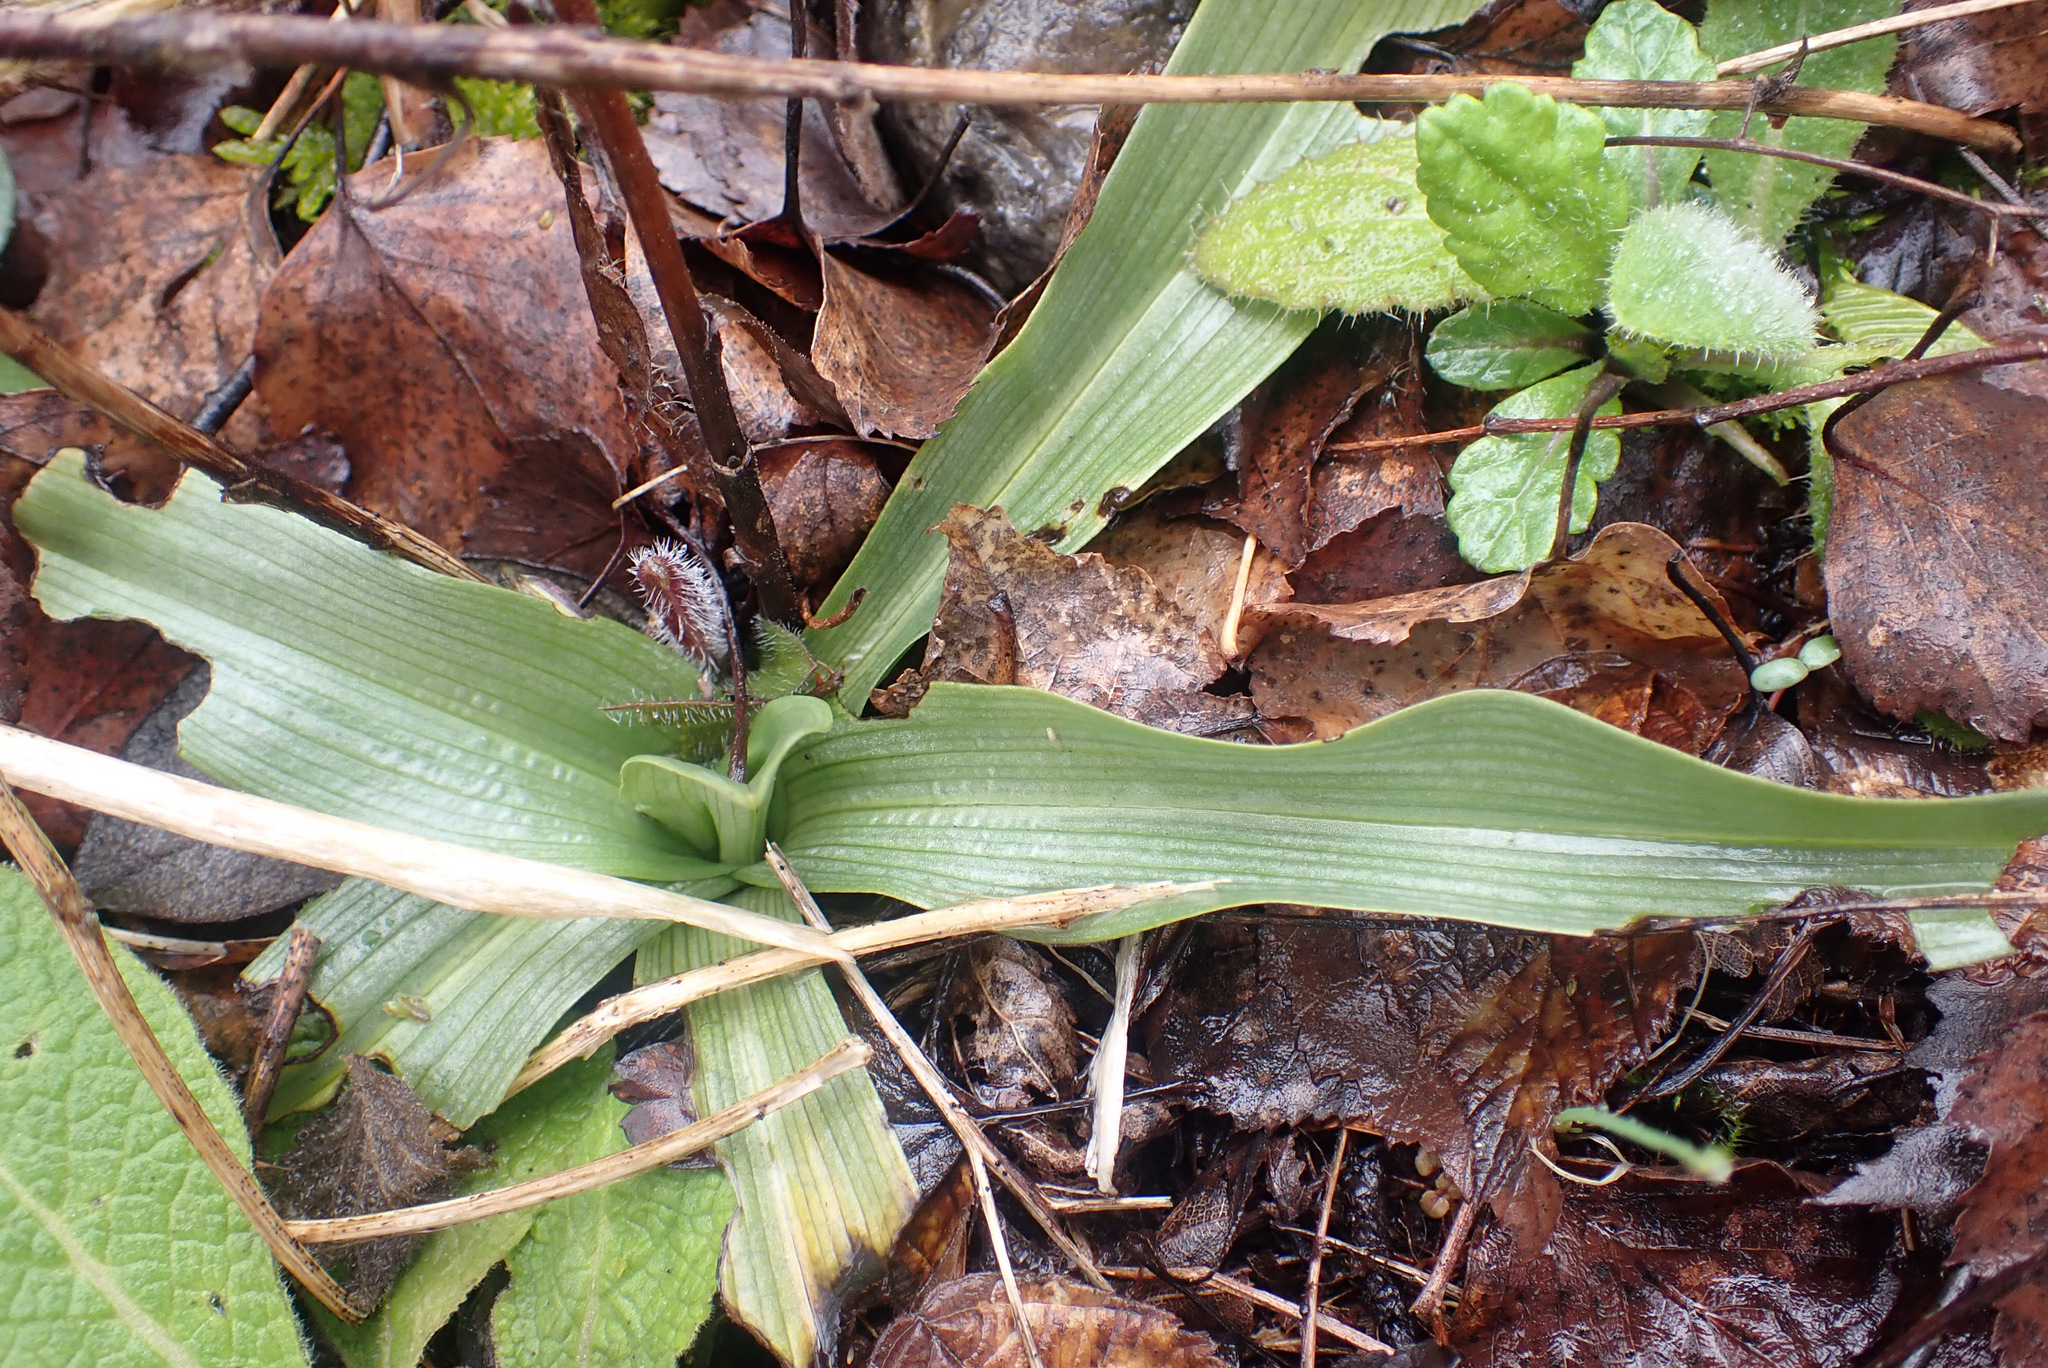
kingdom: Plantae
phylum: Tracheophyta
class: Liliopsida
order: Asparagales
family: Orchidaceae
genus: Ophrys
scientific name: Ophrys apifera
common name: Bee orchid
